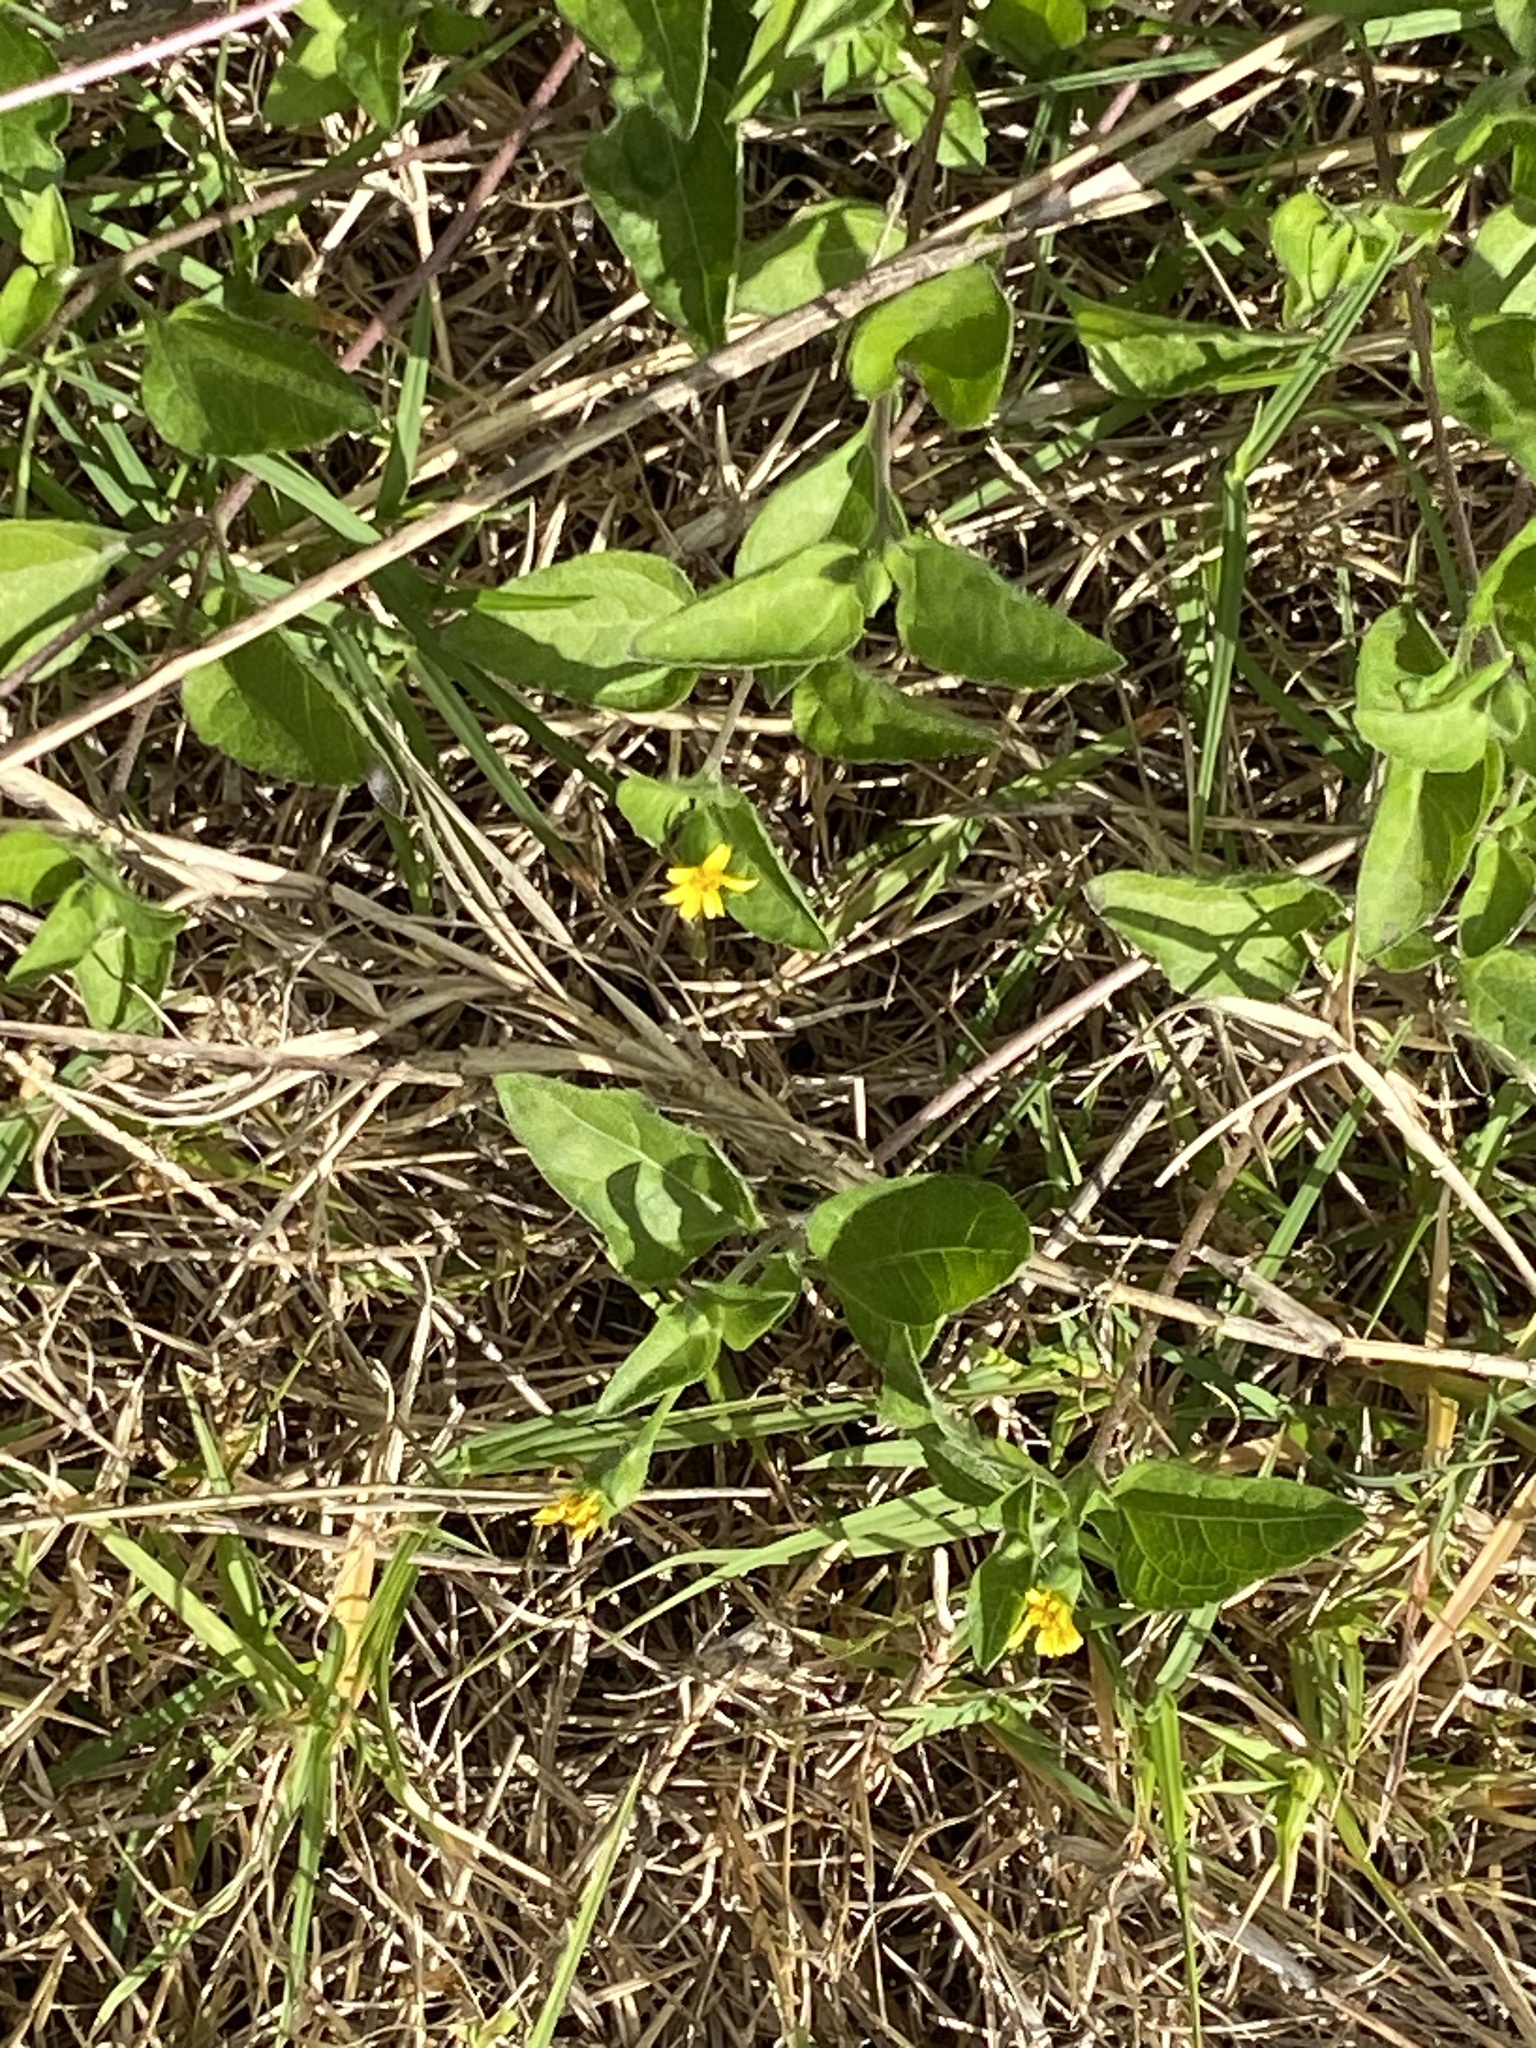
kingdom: Plantae
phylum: Tracheophyta
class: Magnoliopsida
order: Asterales
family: Asteraceae
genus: Calyptocarpus
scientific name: Calyptocarpus vialis
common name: Straggler daisy
